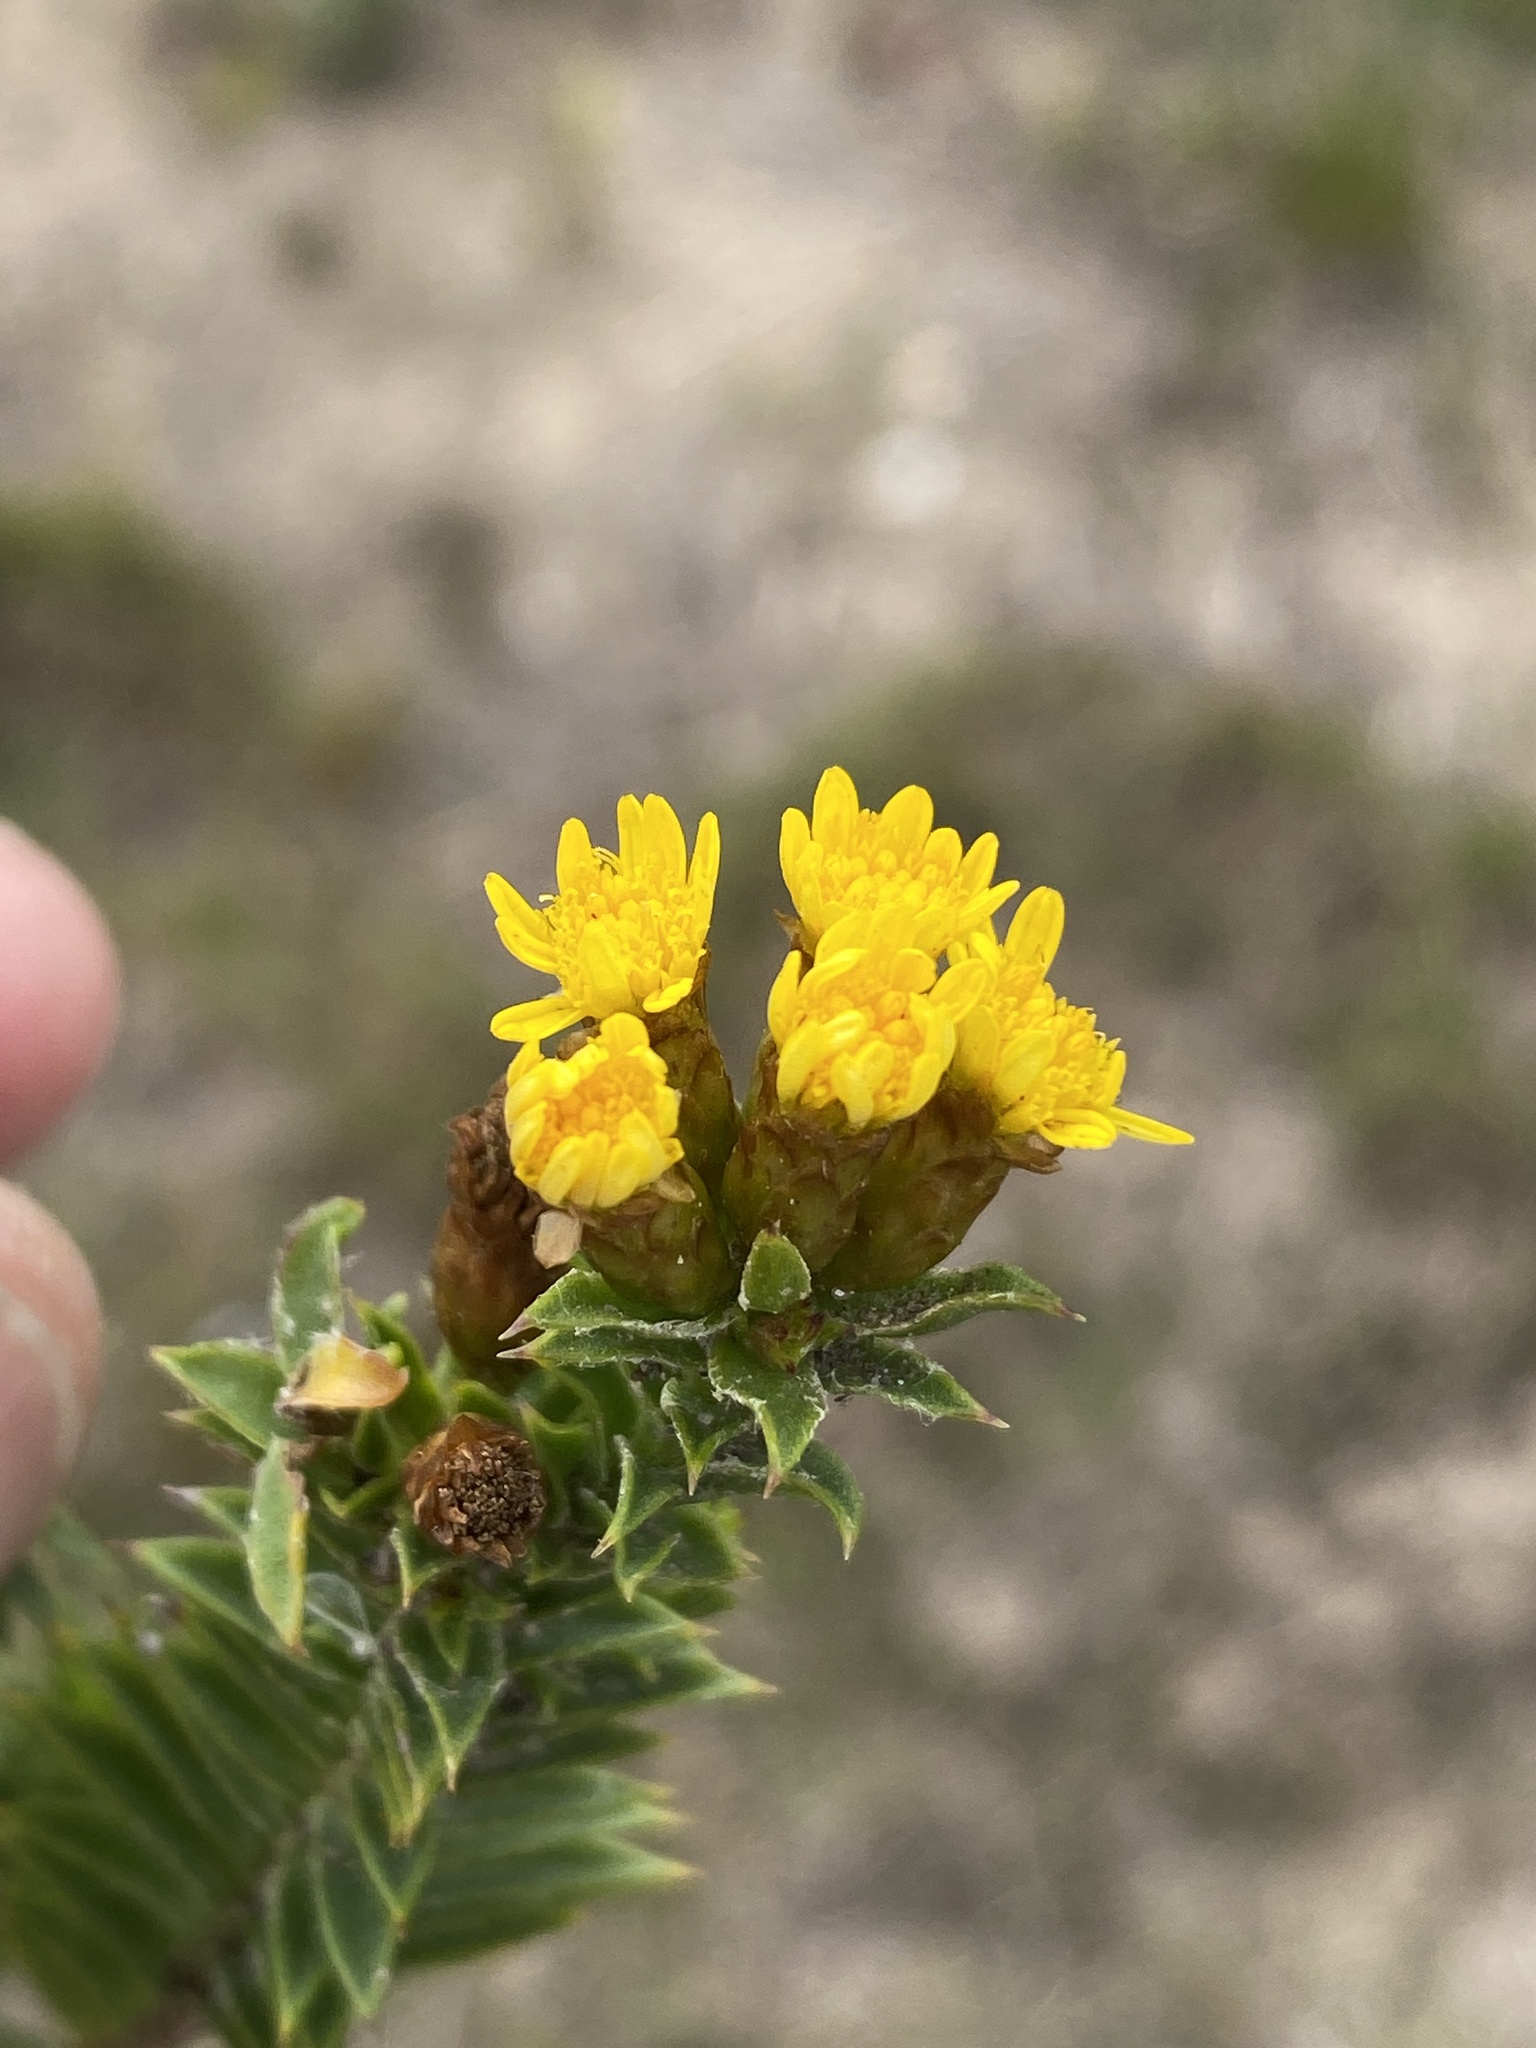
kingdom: Plantae
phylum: Tracheophyta
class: Magnoliopsida
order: Asterales
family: Asteraceae
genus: Oedera
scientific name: Oedera steyniae
